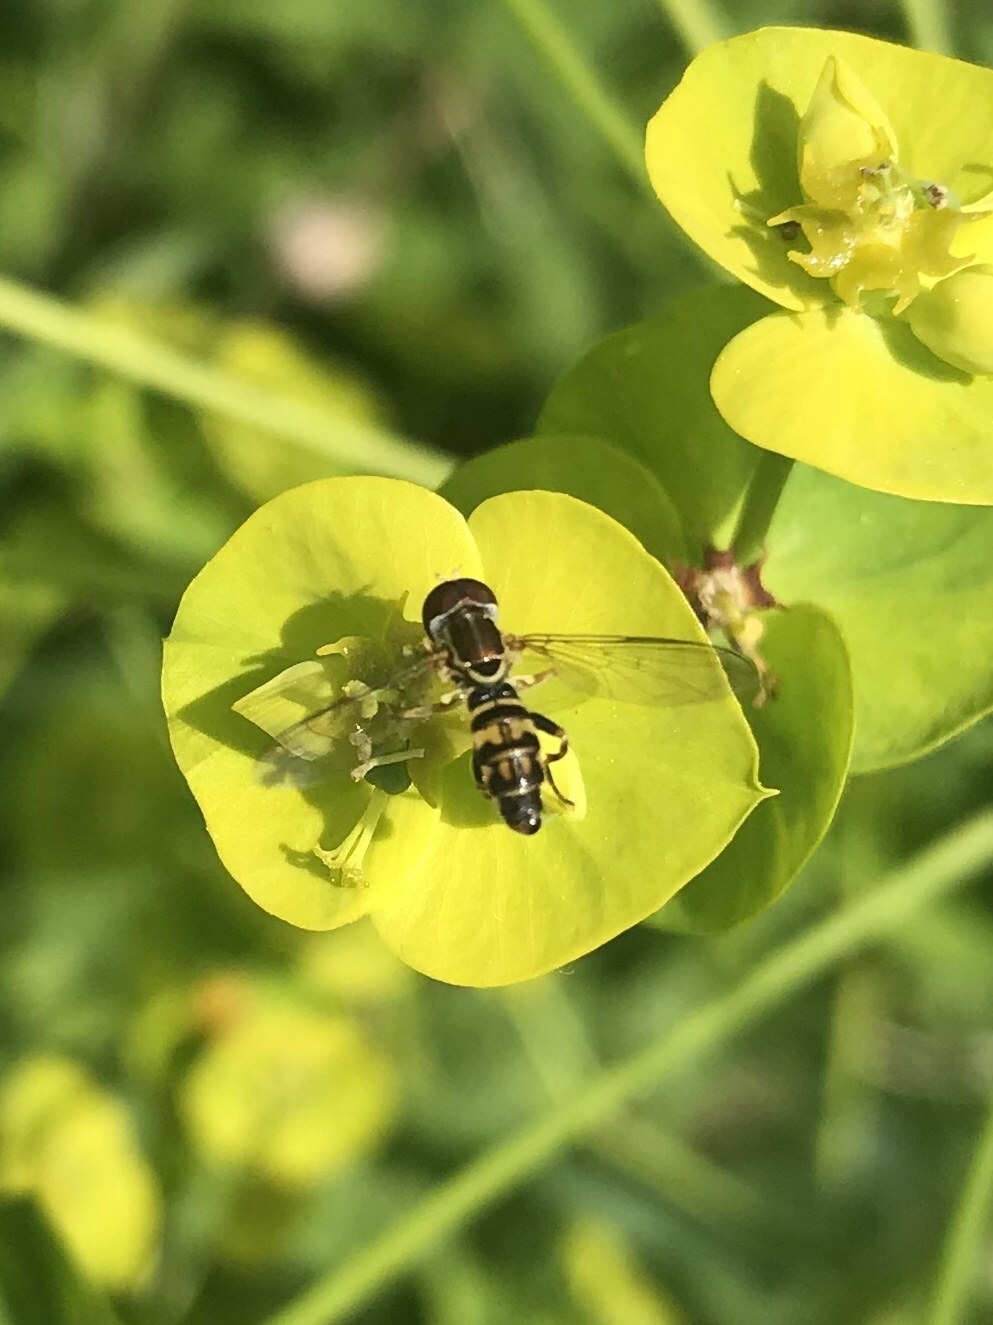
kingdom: Animalia
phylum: Arthropoda
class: Insecta
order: Diptera
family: Syrphidae
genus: Toxomerus
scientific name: Toxomerus geminatus
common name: Eastern calligrapher
